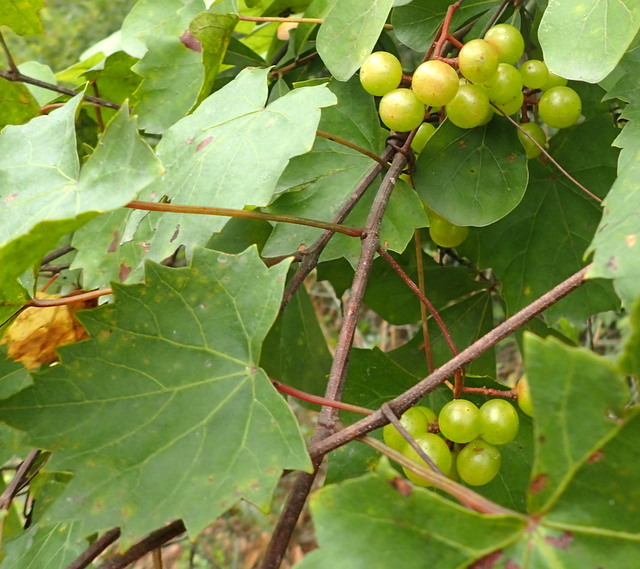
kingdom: Plantae
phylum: Tracheophyta
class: Magnoliopsida
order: Vitales
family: Vitaceae
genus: Vitis
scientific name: Vitis rotundifolia
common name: Muscadine grape
